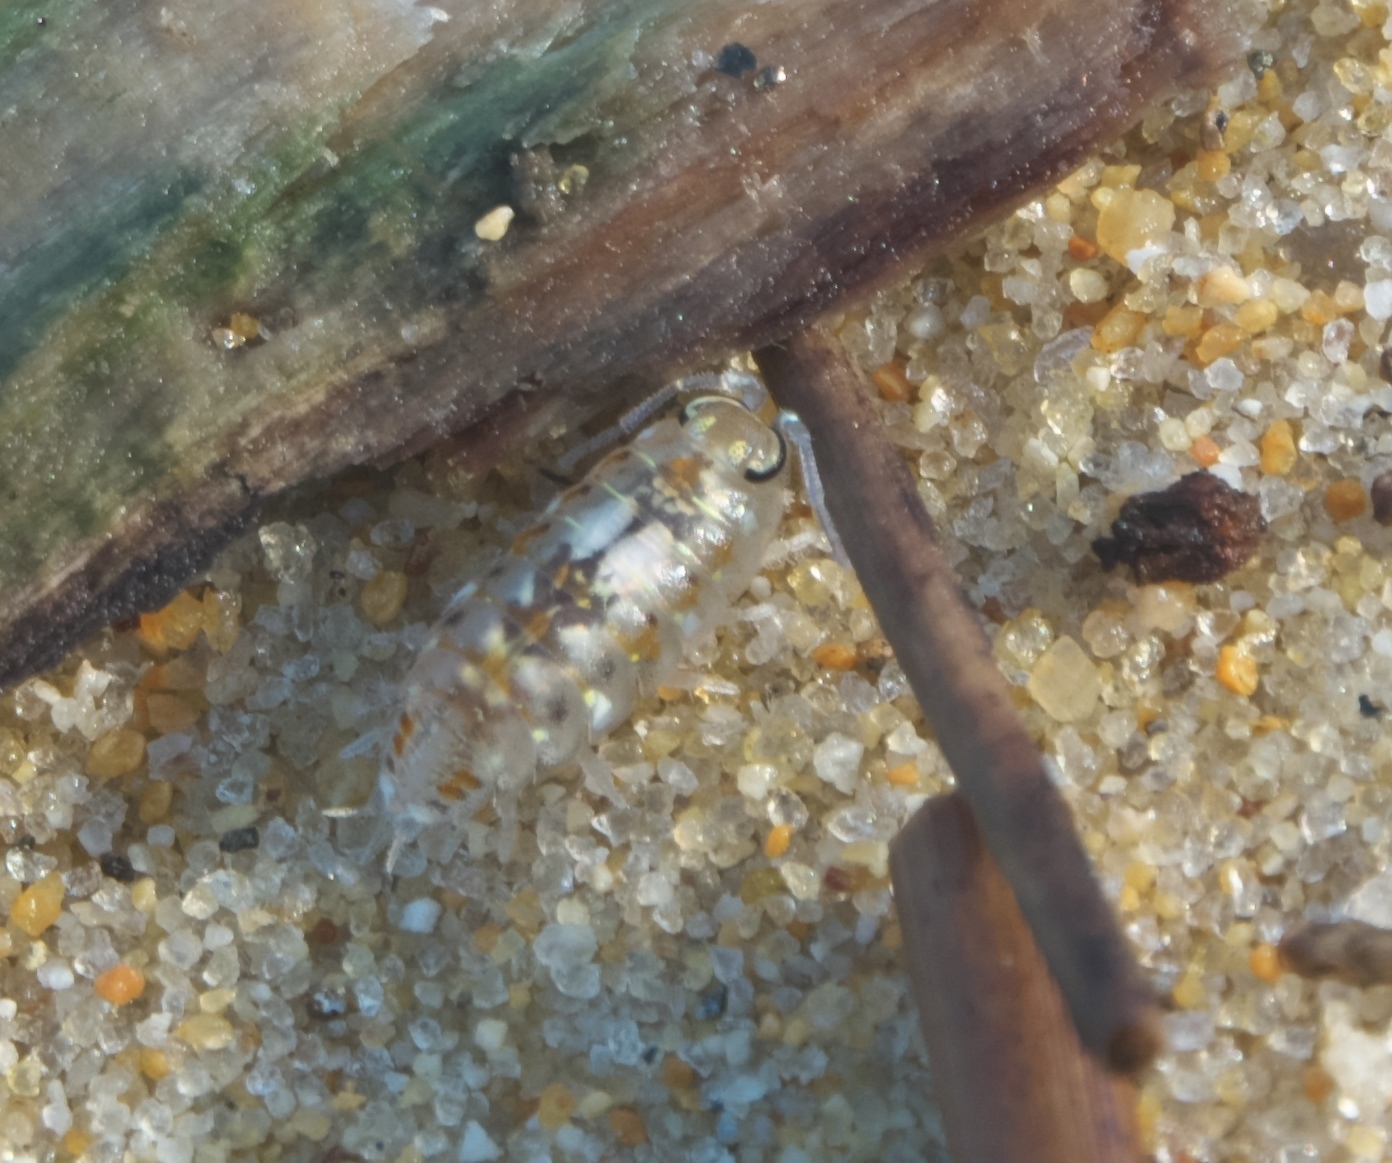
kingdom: Animalia
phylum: Arthropoda
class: Malacostraca
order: Isopoda
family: Scyphacidae
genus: Scyphax
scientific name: Scyphax ornatus
